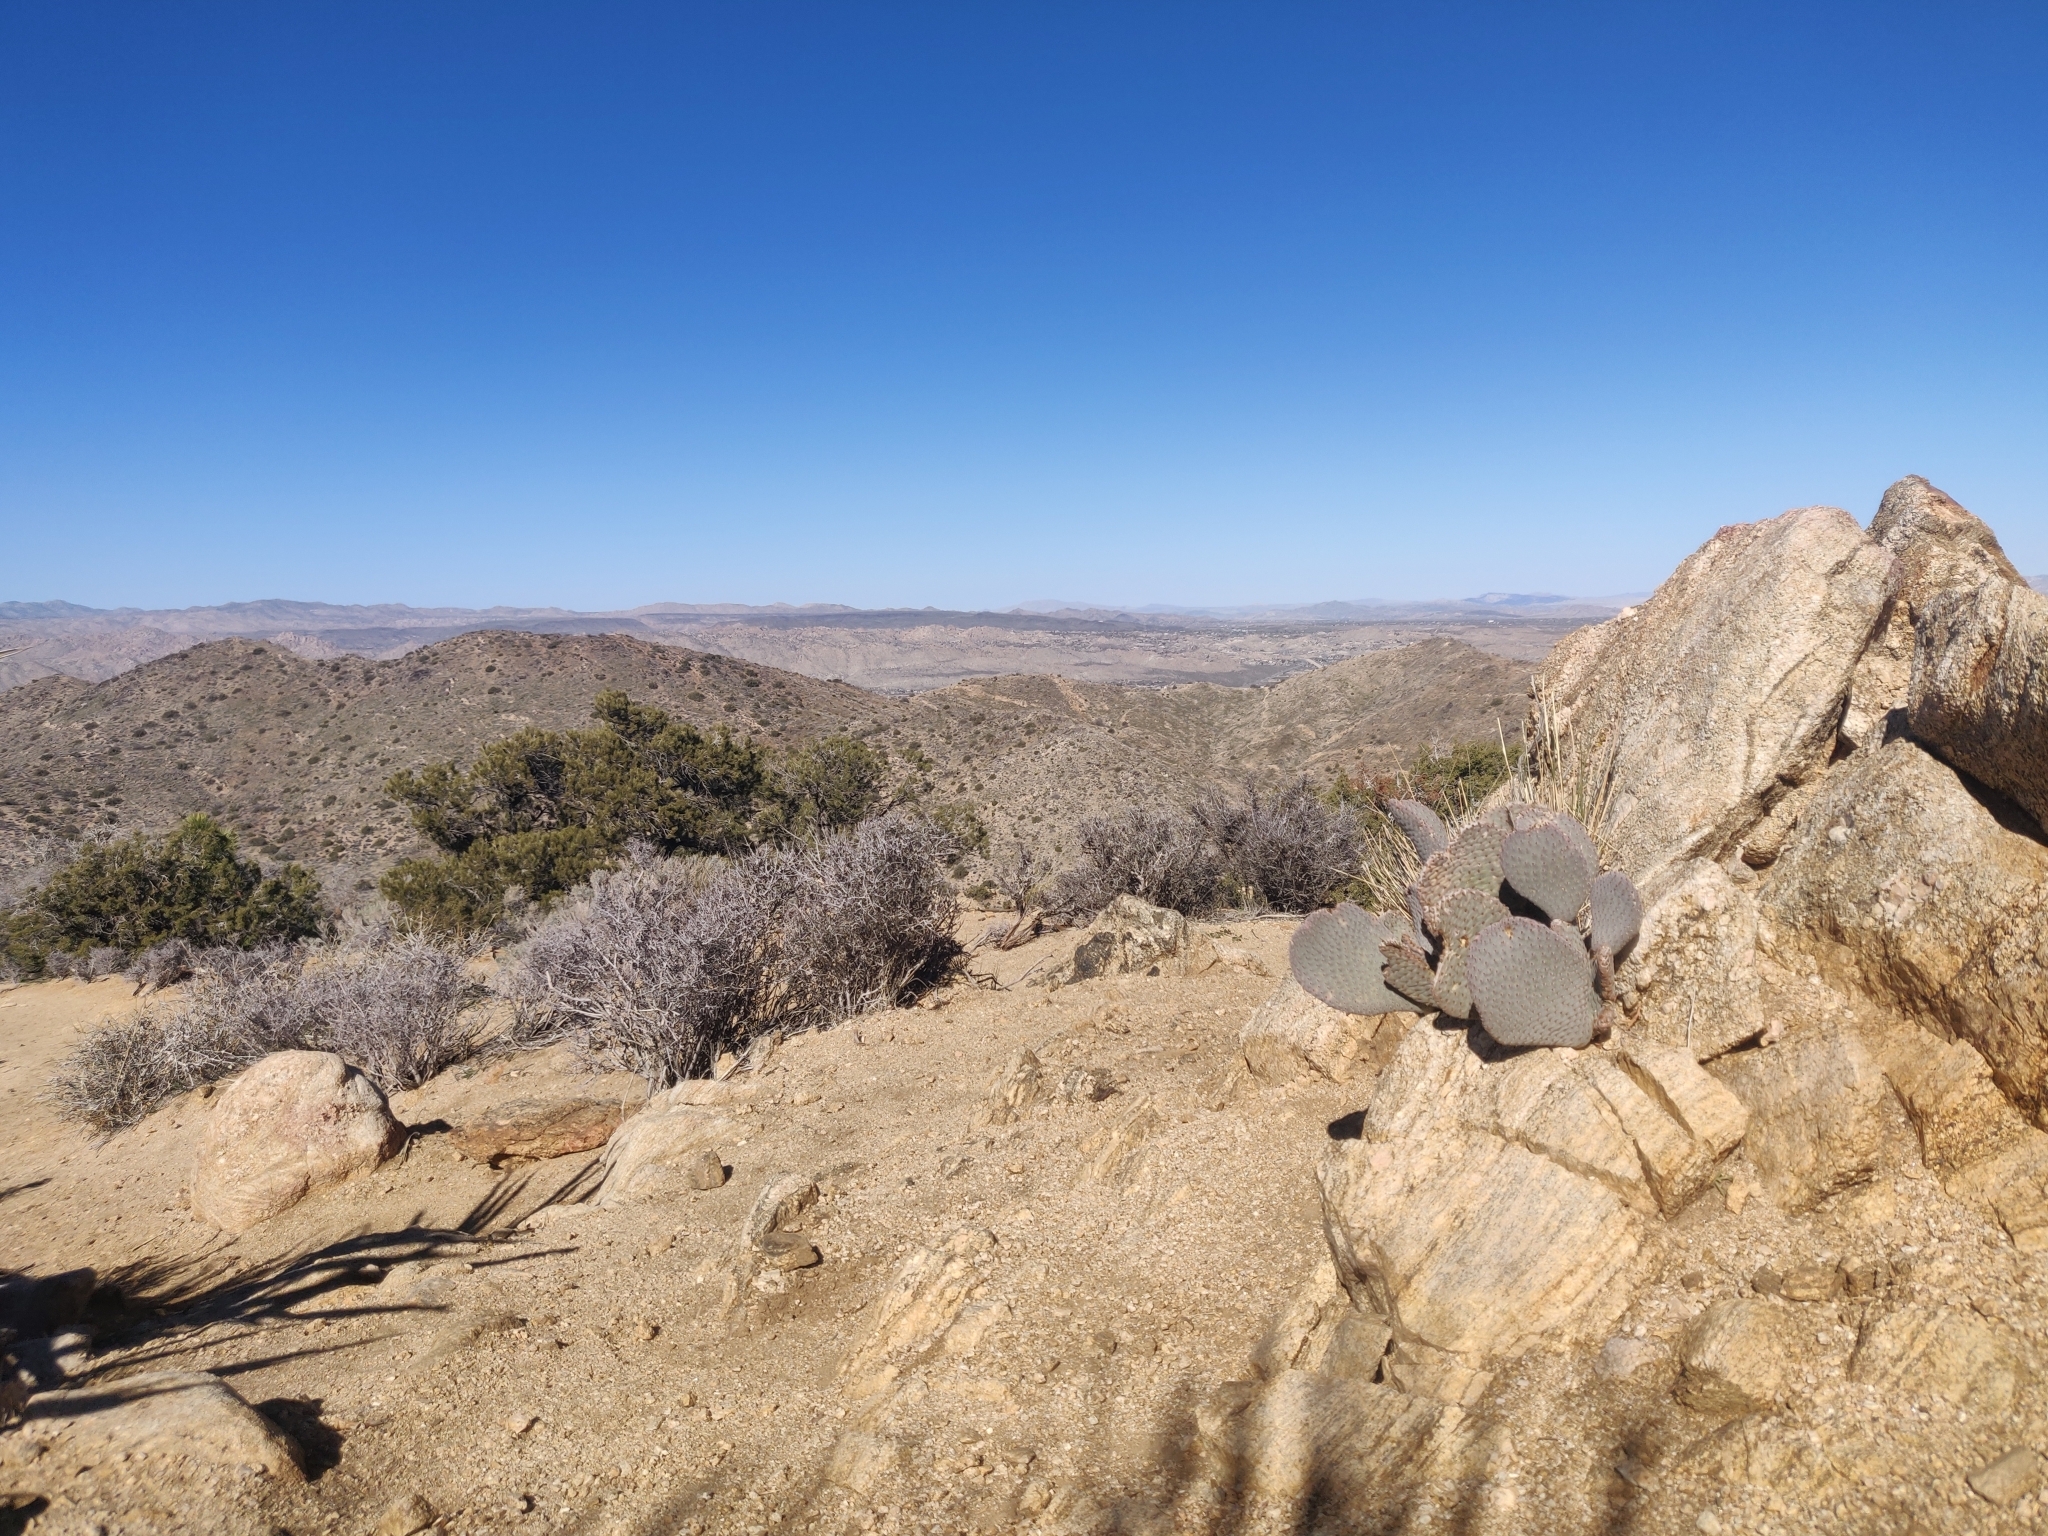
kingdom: Plantae
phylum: Tracheophyta
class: Magnoliopsida
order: Caryophyllales
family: Cactaceae
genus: Opuntia
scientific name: Opuntia basilaris
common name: Beavertail prickly-pear
